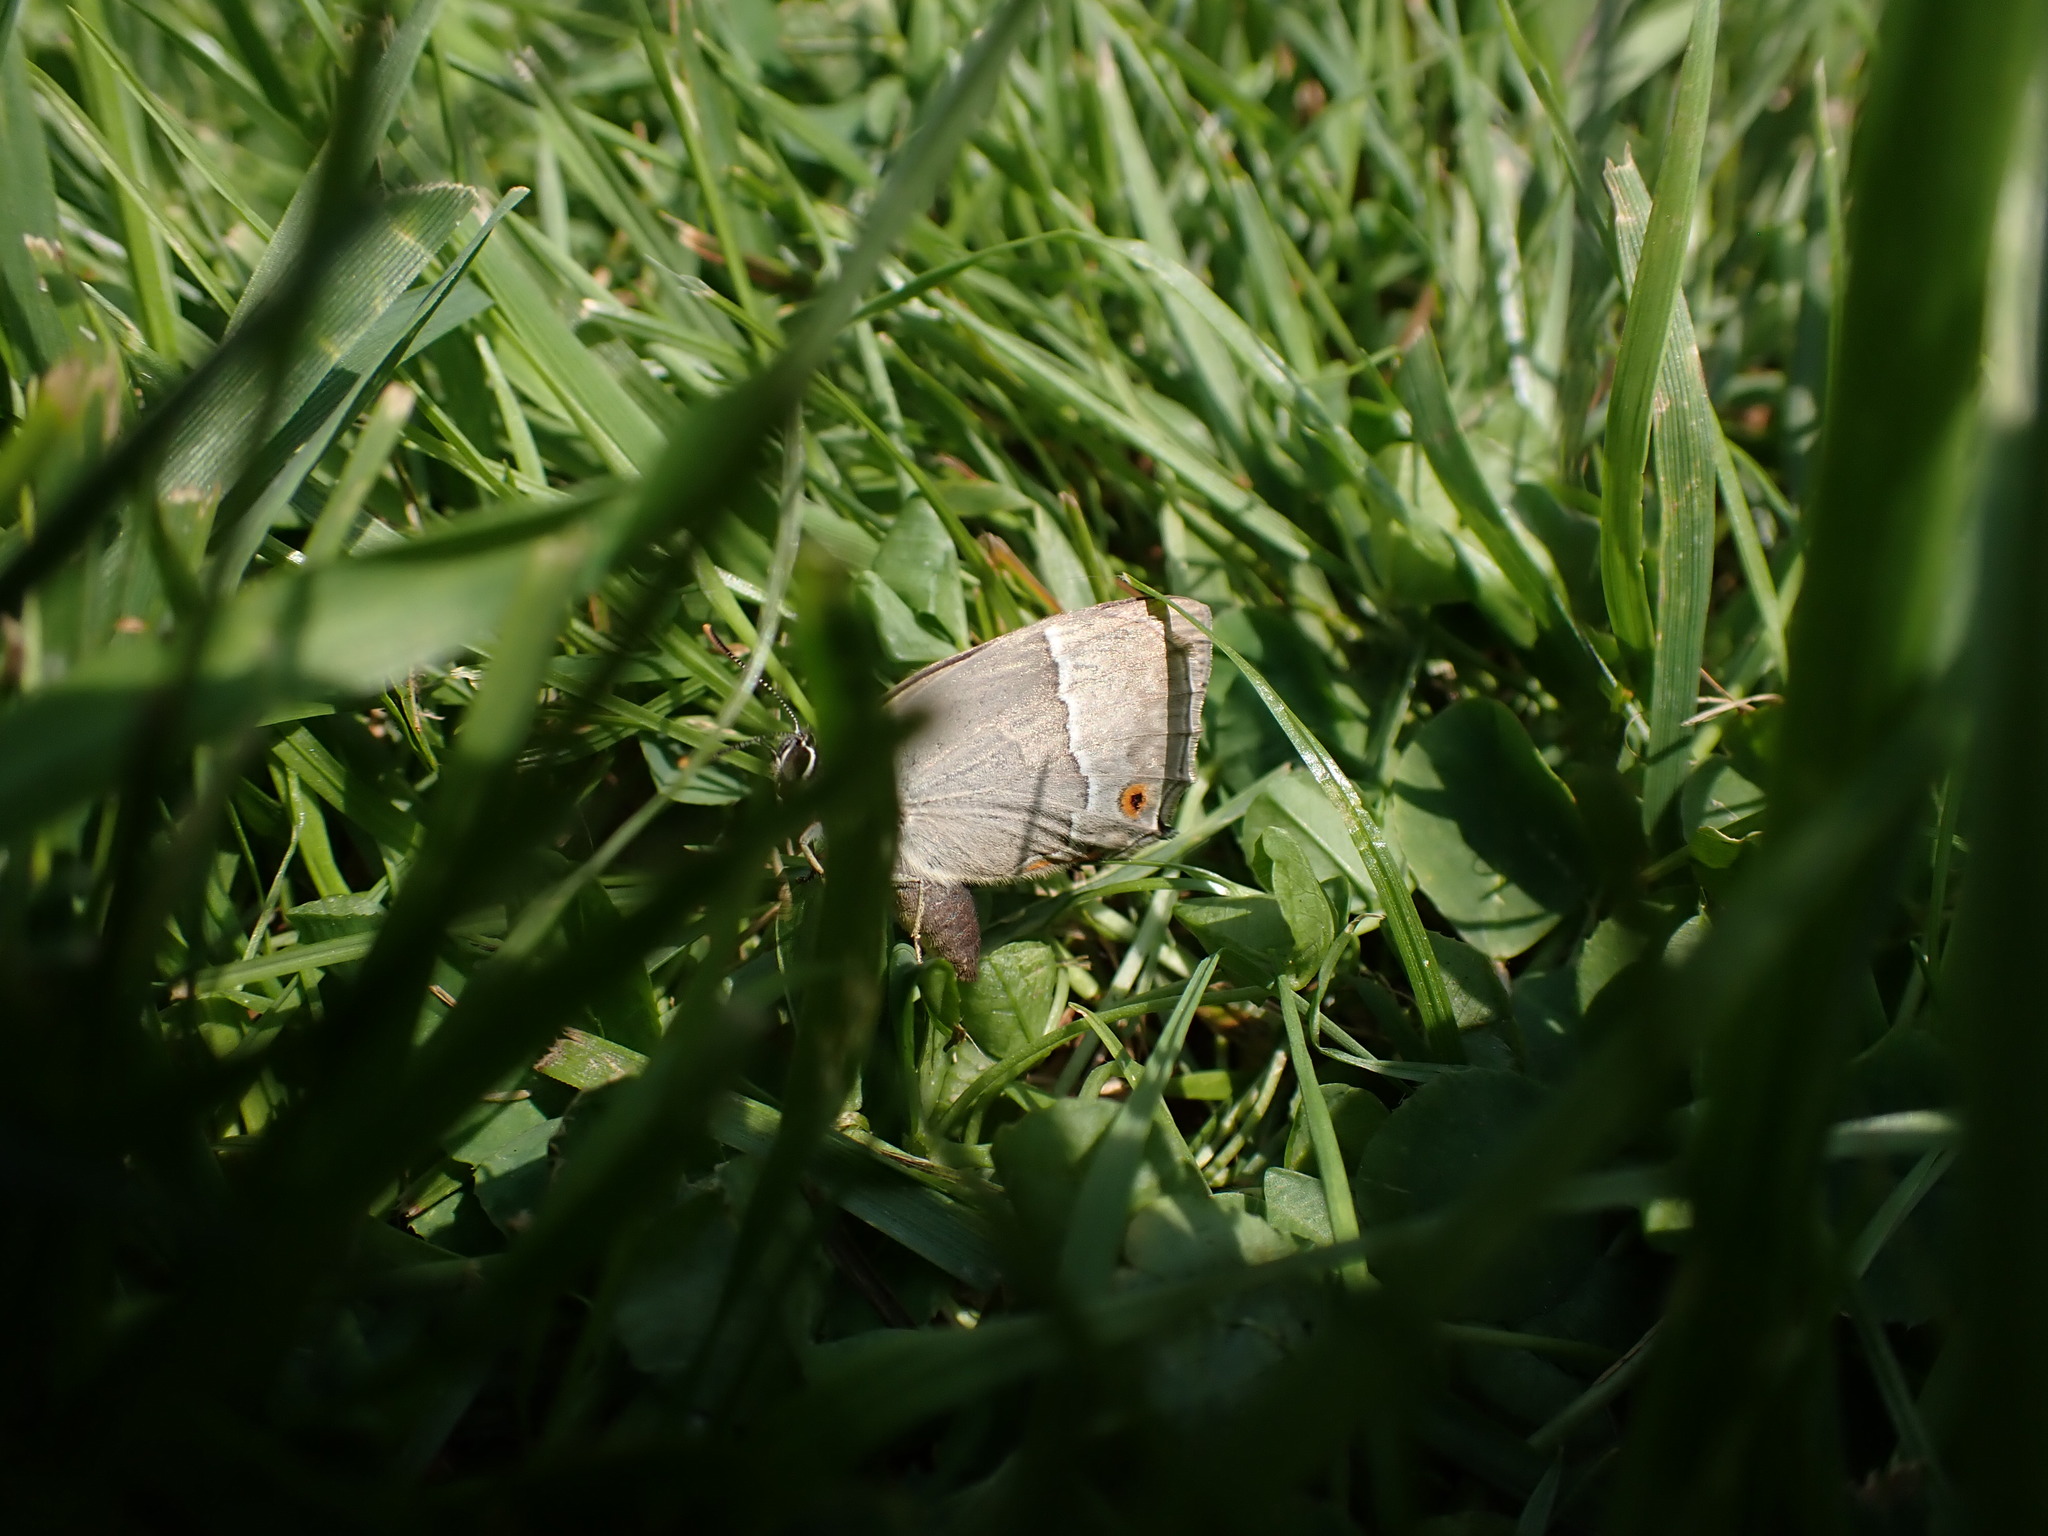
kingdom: Animalia
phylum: Arthropoda
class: Insecta
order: Lepidoptera
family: Lycaenidae
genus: Quercusia
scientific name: Quercusia quercus
